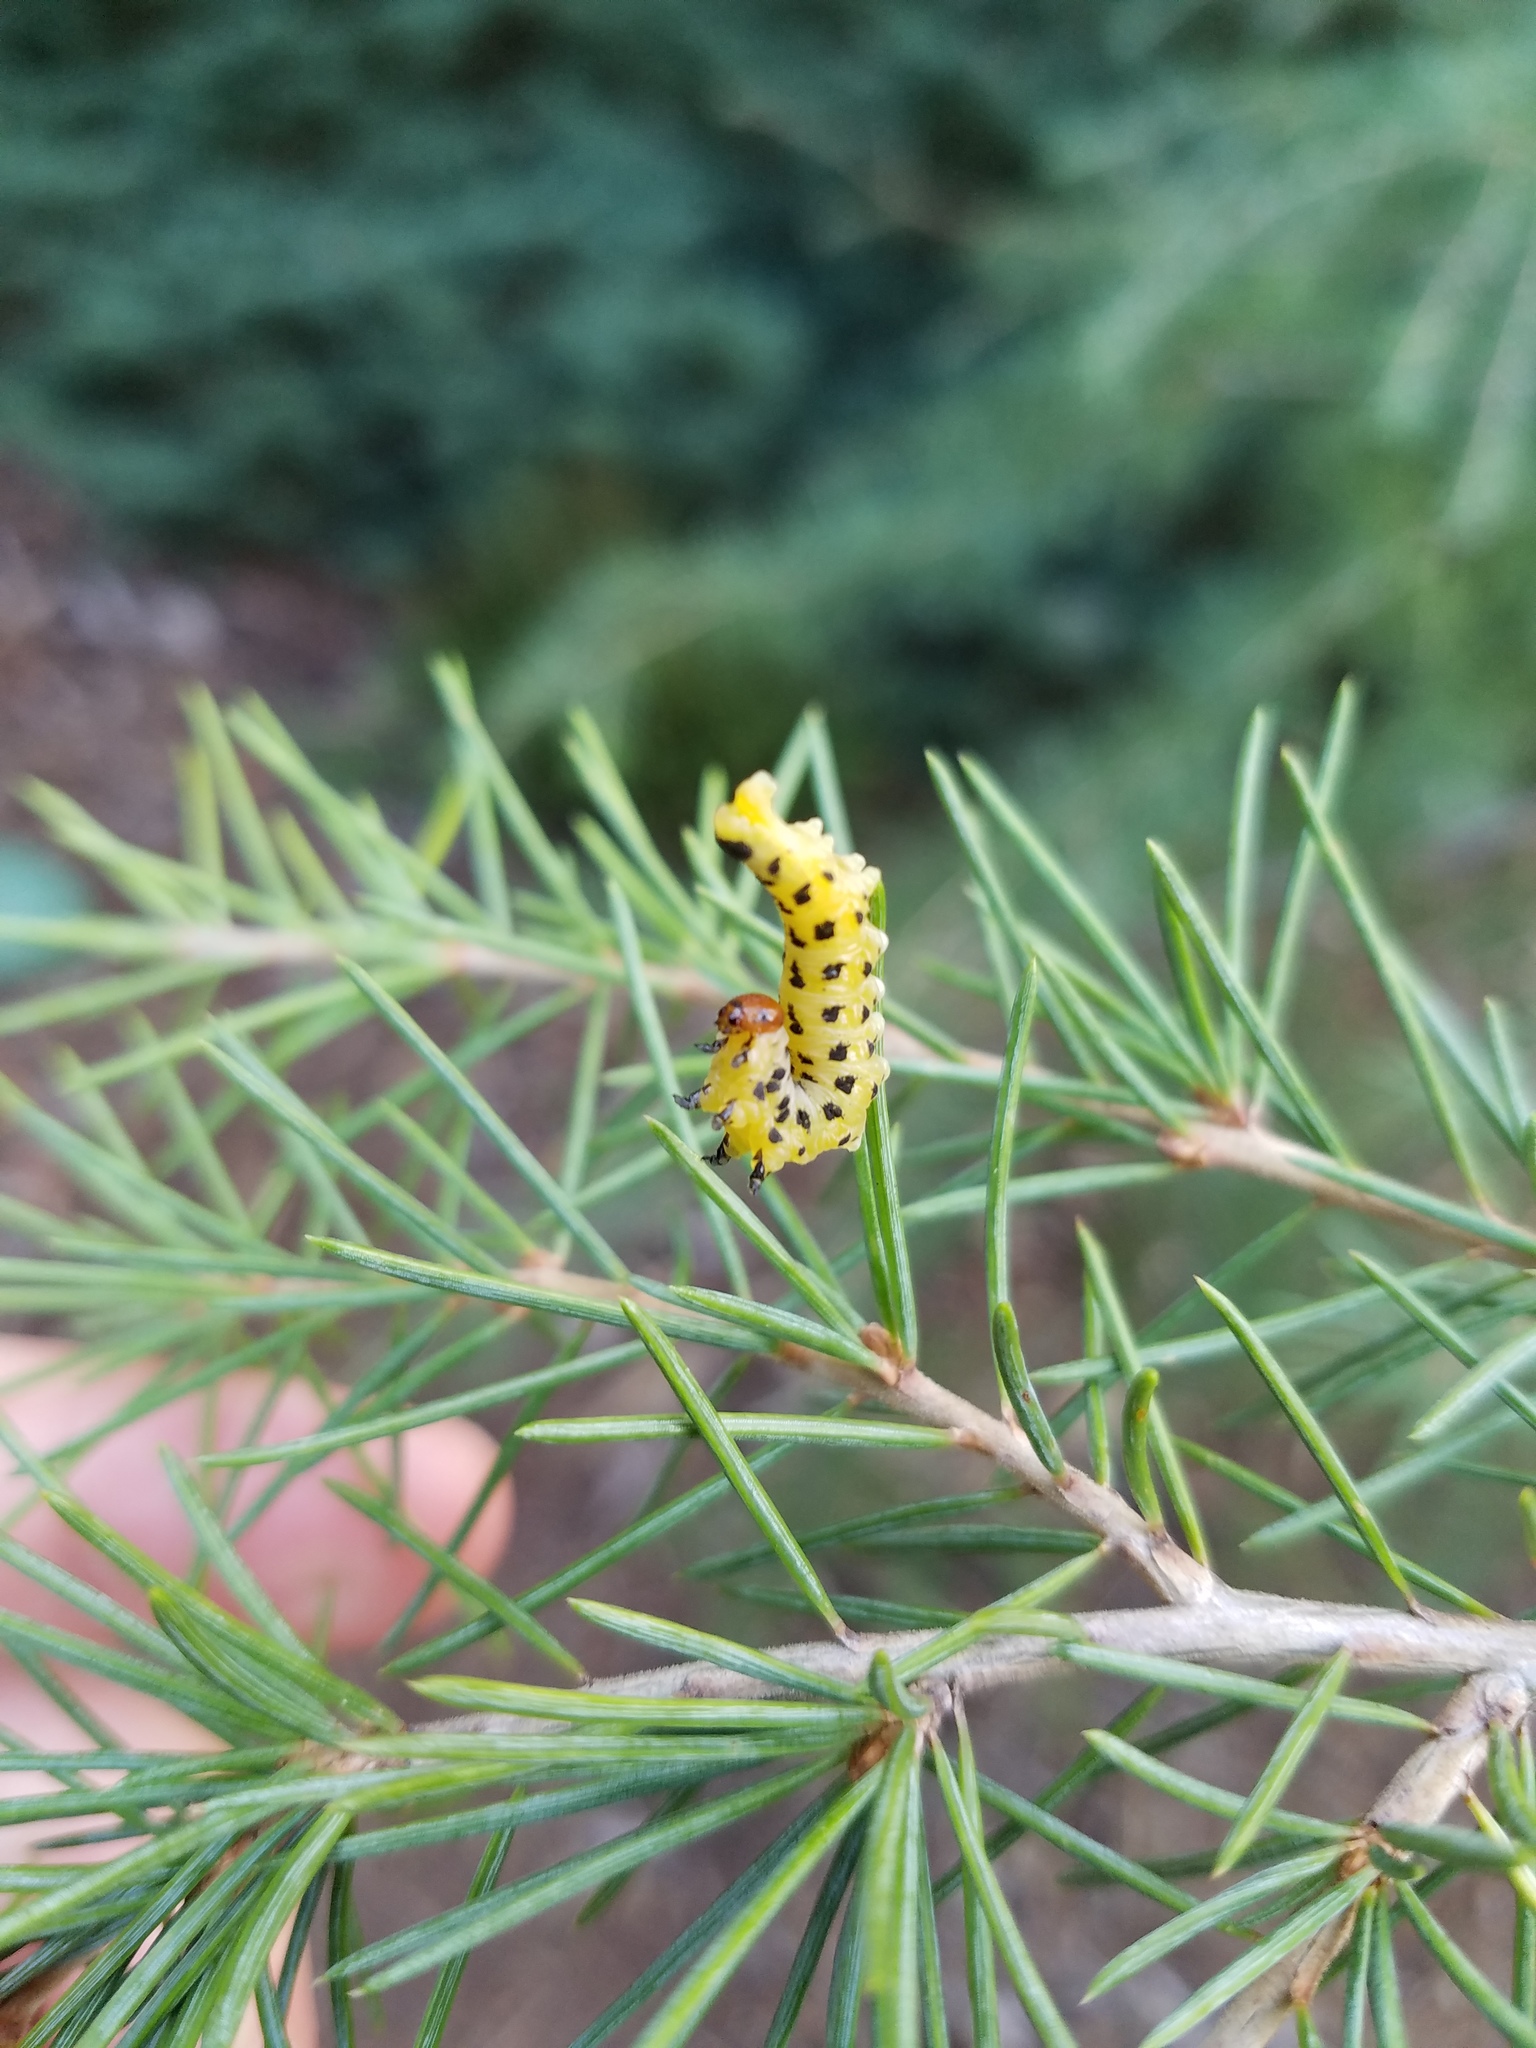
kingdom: Animalia
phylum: Arthropoda
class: Insecta
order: Hymenoptera
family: Diprionidae
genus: Neodiprion
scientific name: Neodiprion lecontei
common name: Redheaded pine sawfly
